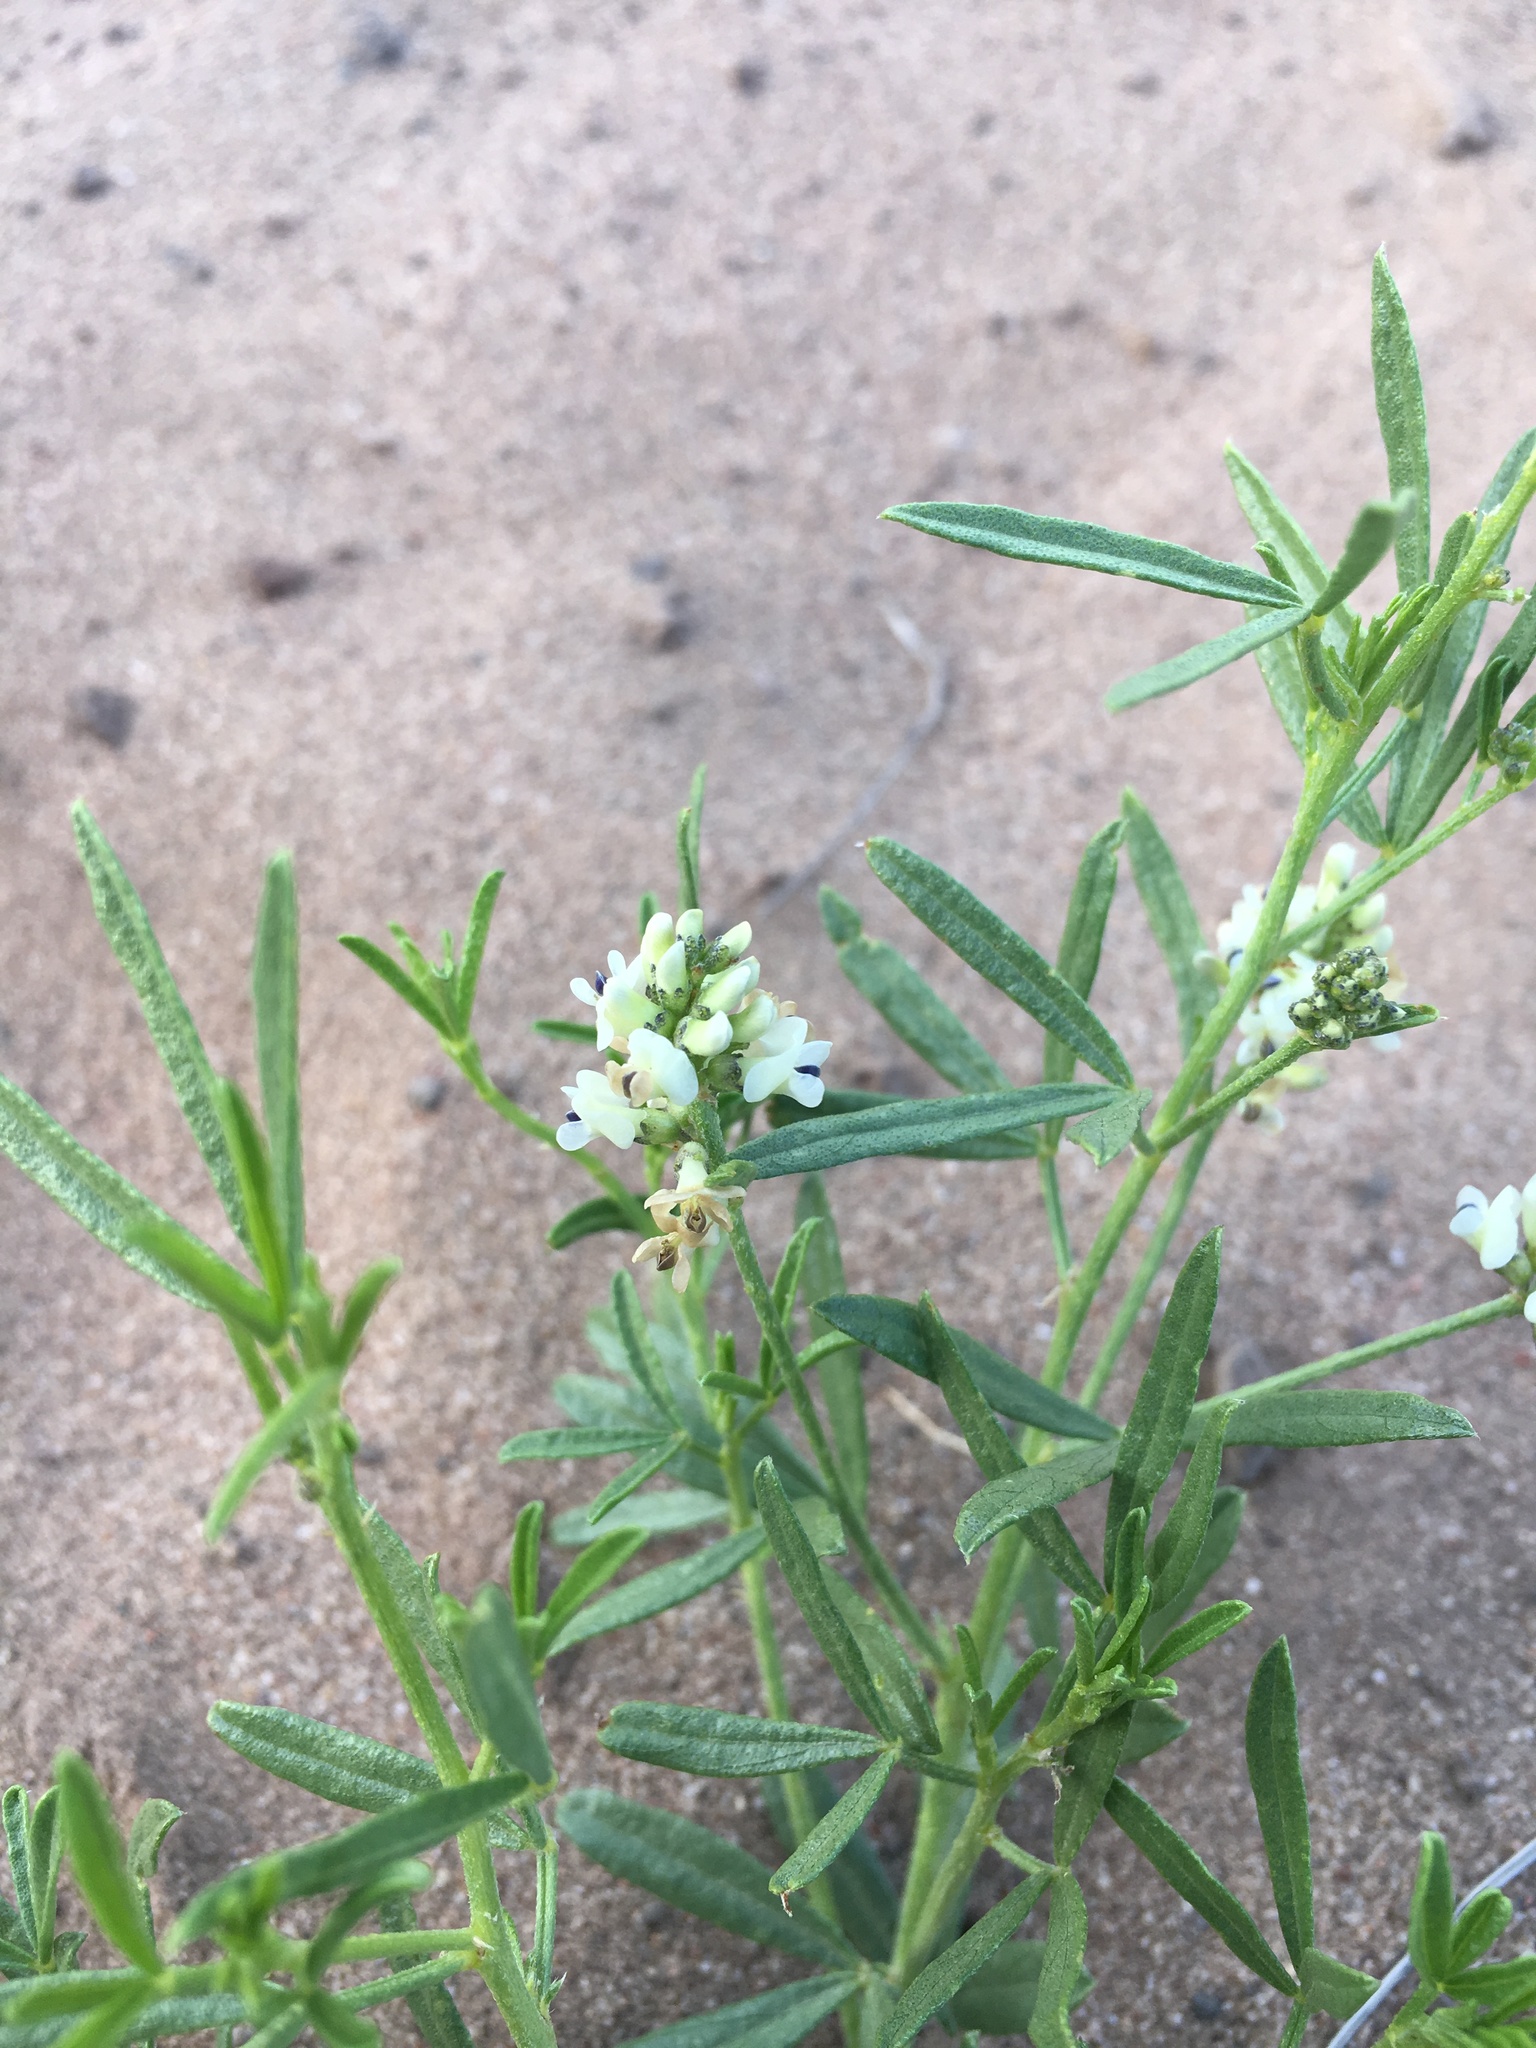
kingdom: Plantae
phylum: Tracheophyta
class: Magnoliopsida
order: Fabales
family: Fabaceae
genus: Ladeania
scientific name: Ladeania lanceolata
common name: Dune scurf-pea
